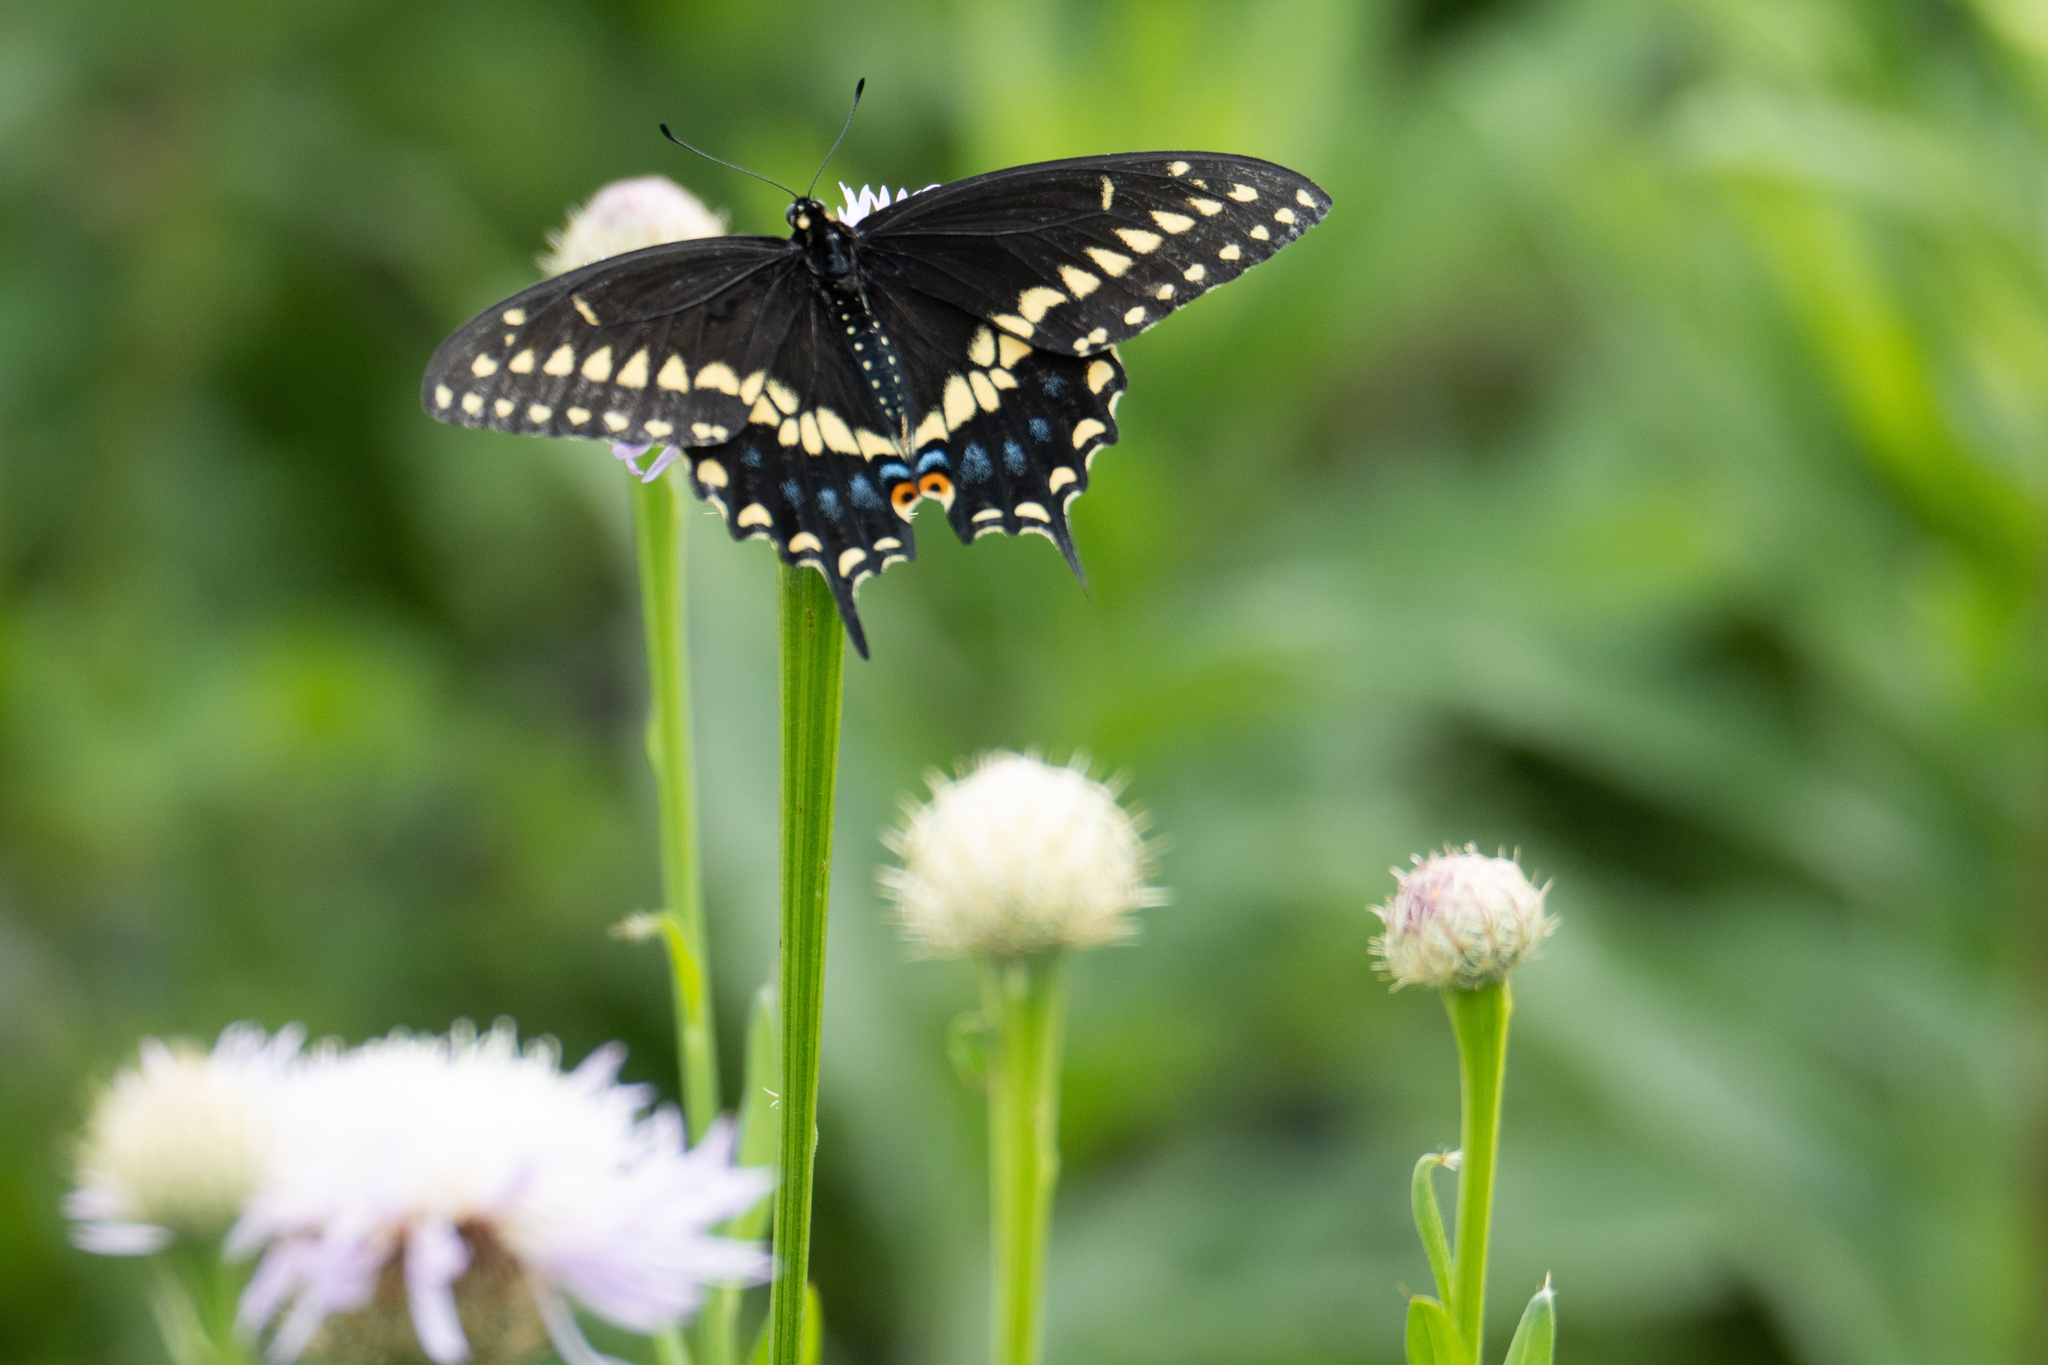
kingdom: Animalia
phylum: Arthropoda
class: Insecta
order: Lepidoptera
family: Papilionidae
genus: Papilio
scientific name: Papilio polyxenes
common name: Black swallowtail
